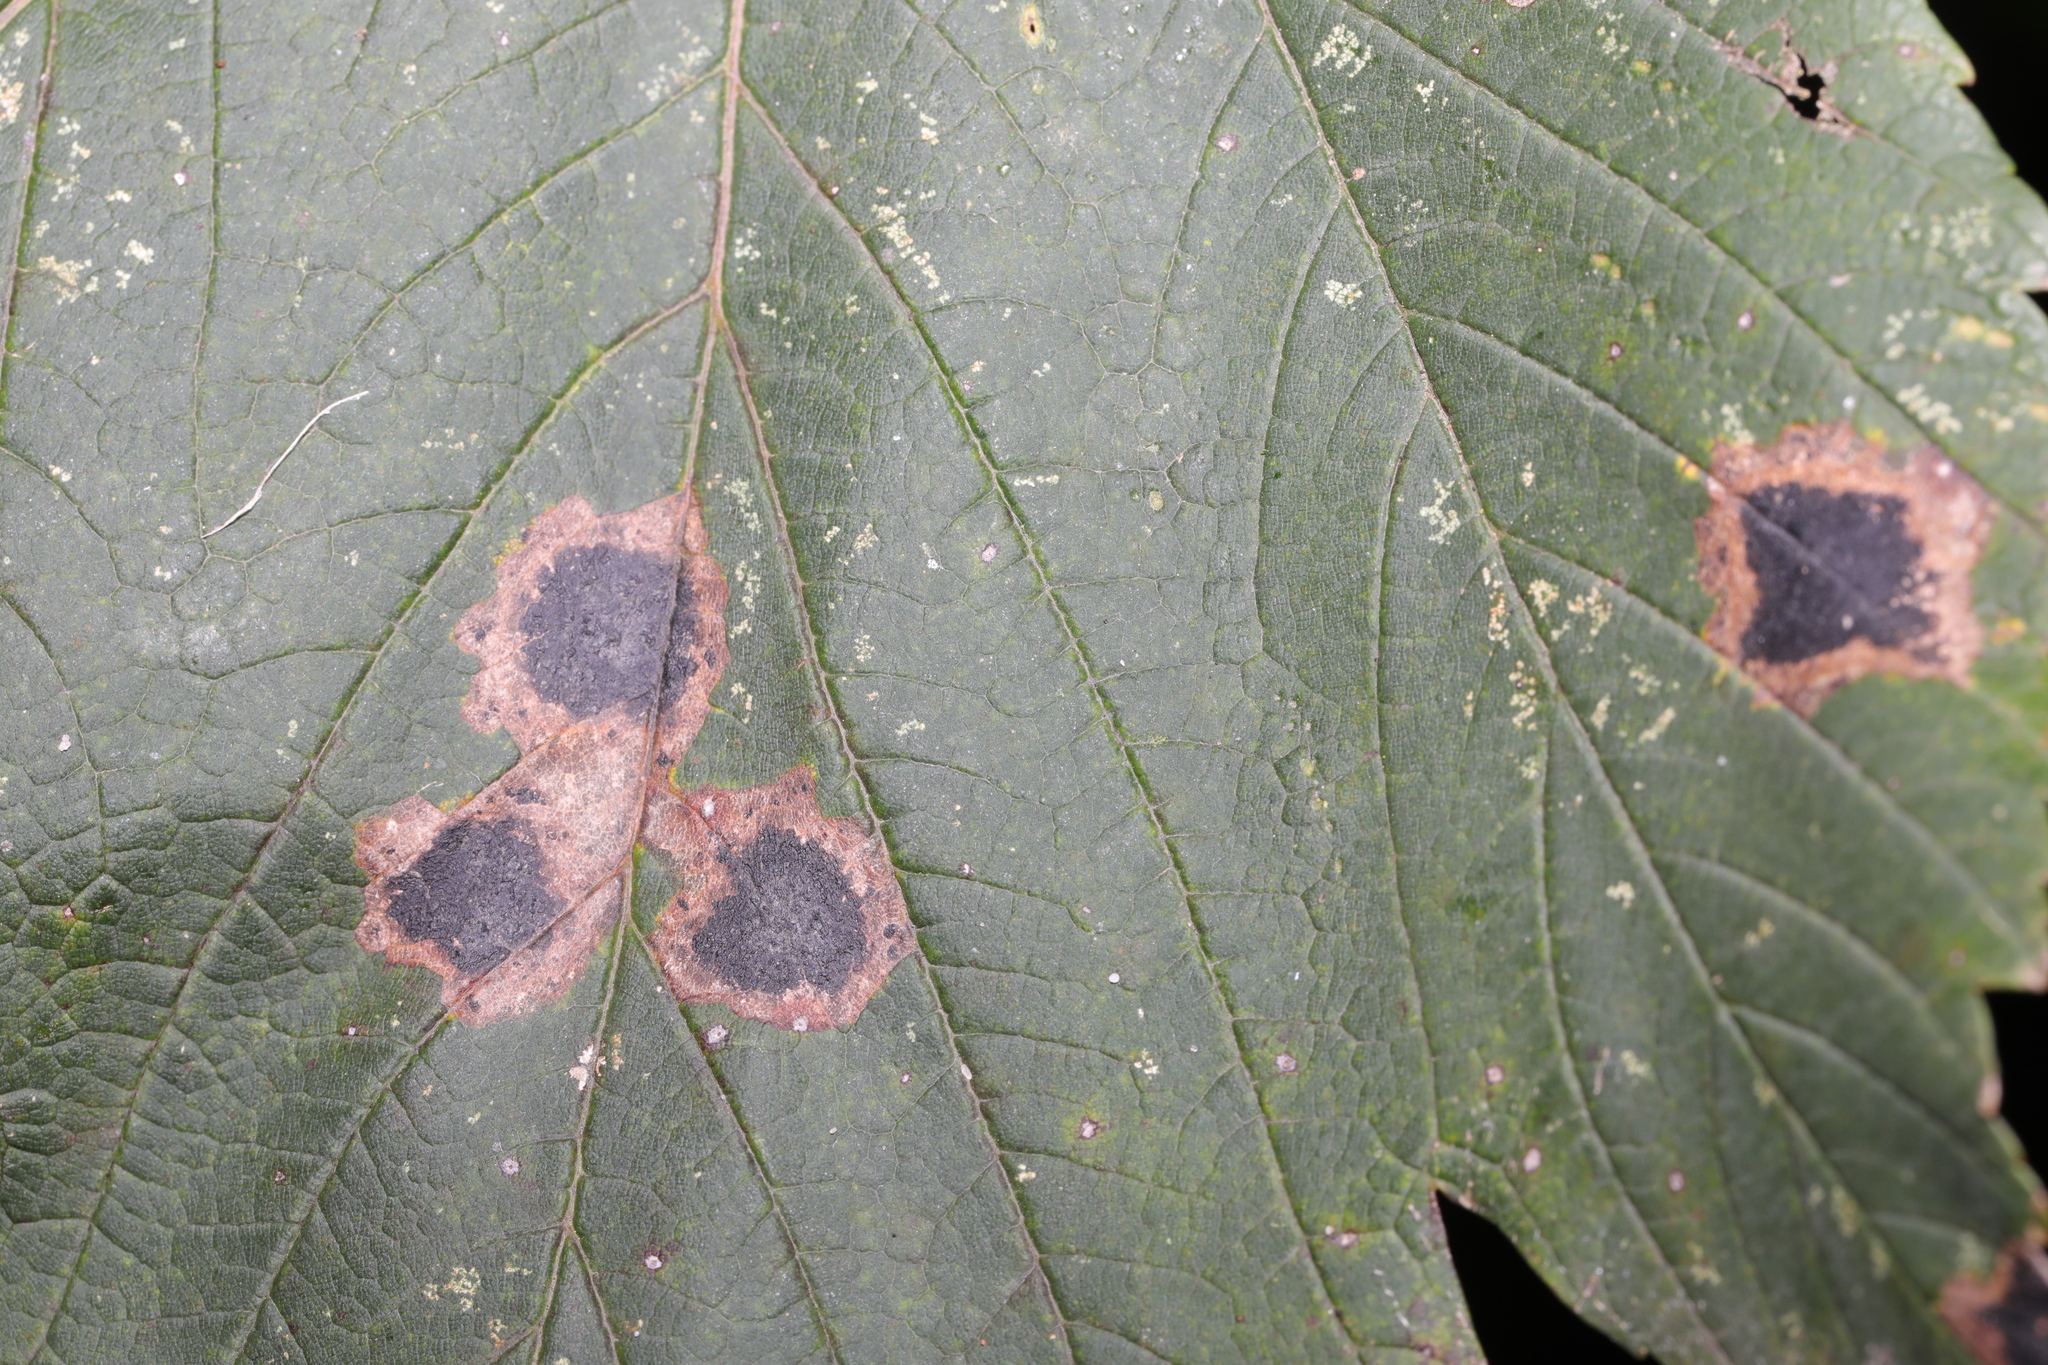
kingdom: Fungi
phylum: Ascomycota
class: Leotiomycetes
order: Rhytismatales
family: Rhytismataceae
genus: Rhytisma
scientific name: Rhytisma acerinum
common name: European tar spot
